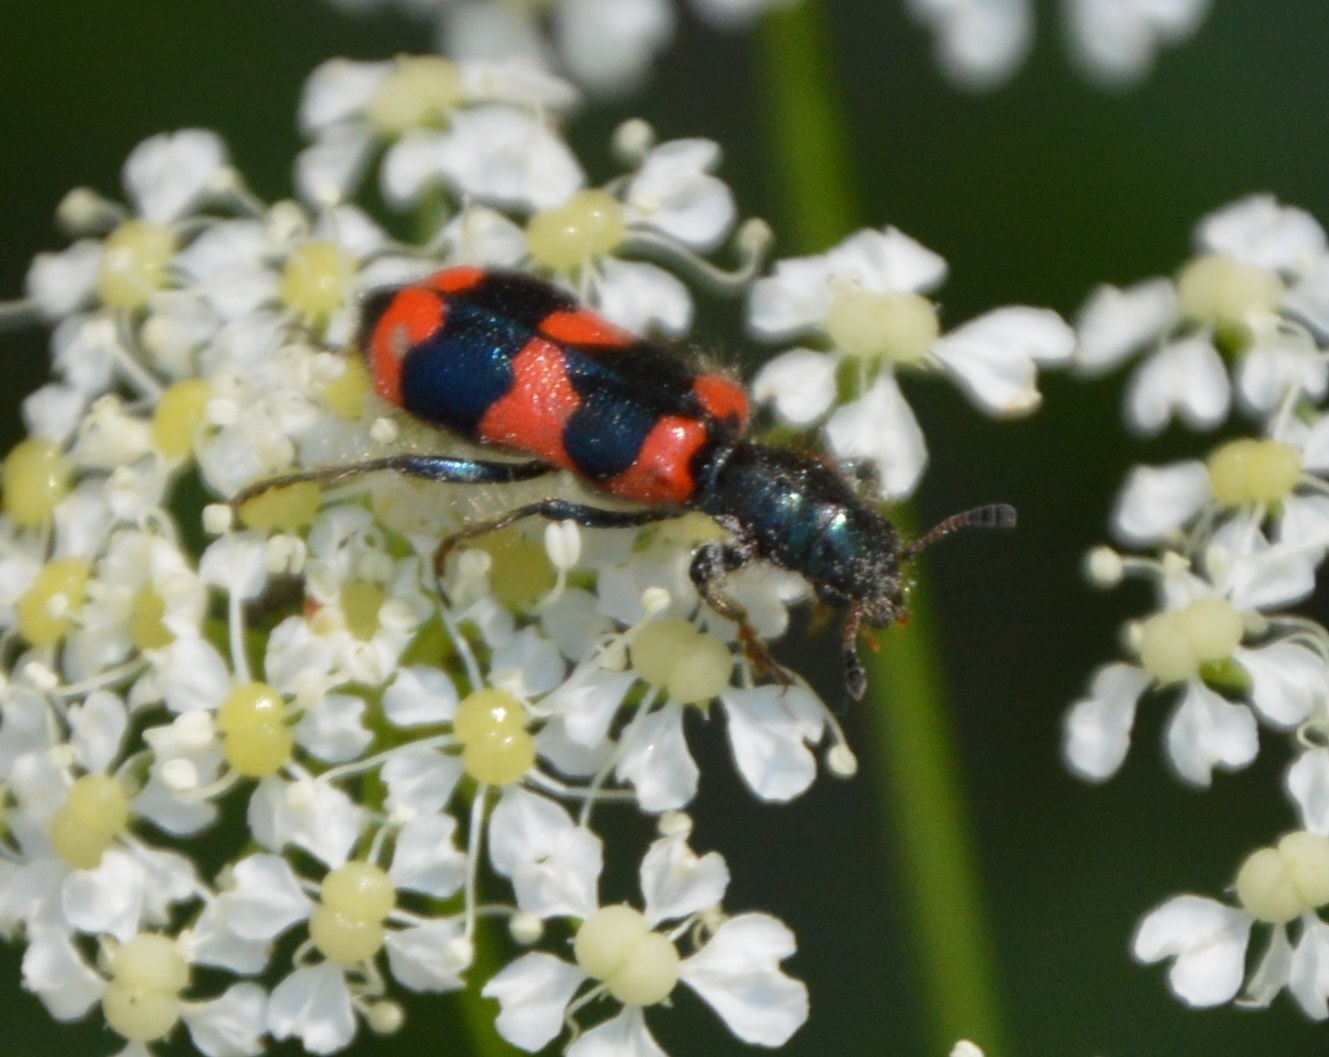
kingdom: Animalia
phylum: Arthropoda
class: Insecta
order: Coleoptera
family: Cleridae
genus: Trichodes
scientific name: Trichodes apiarius
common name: Bee-eating beetle
